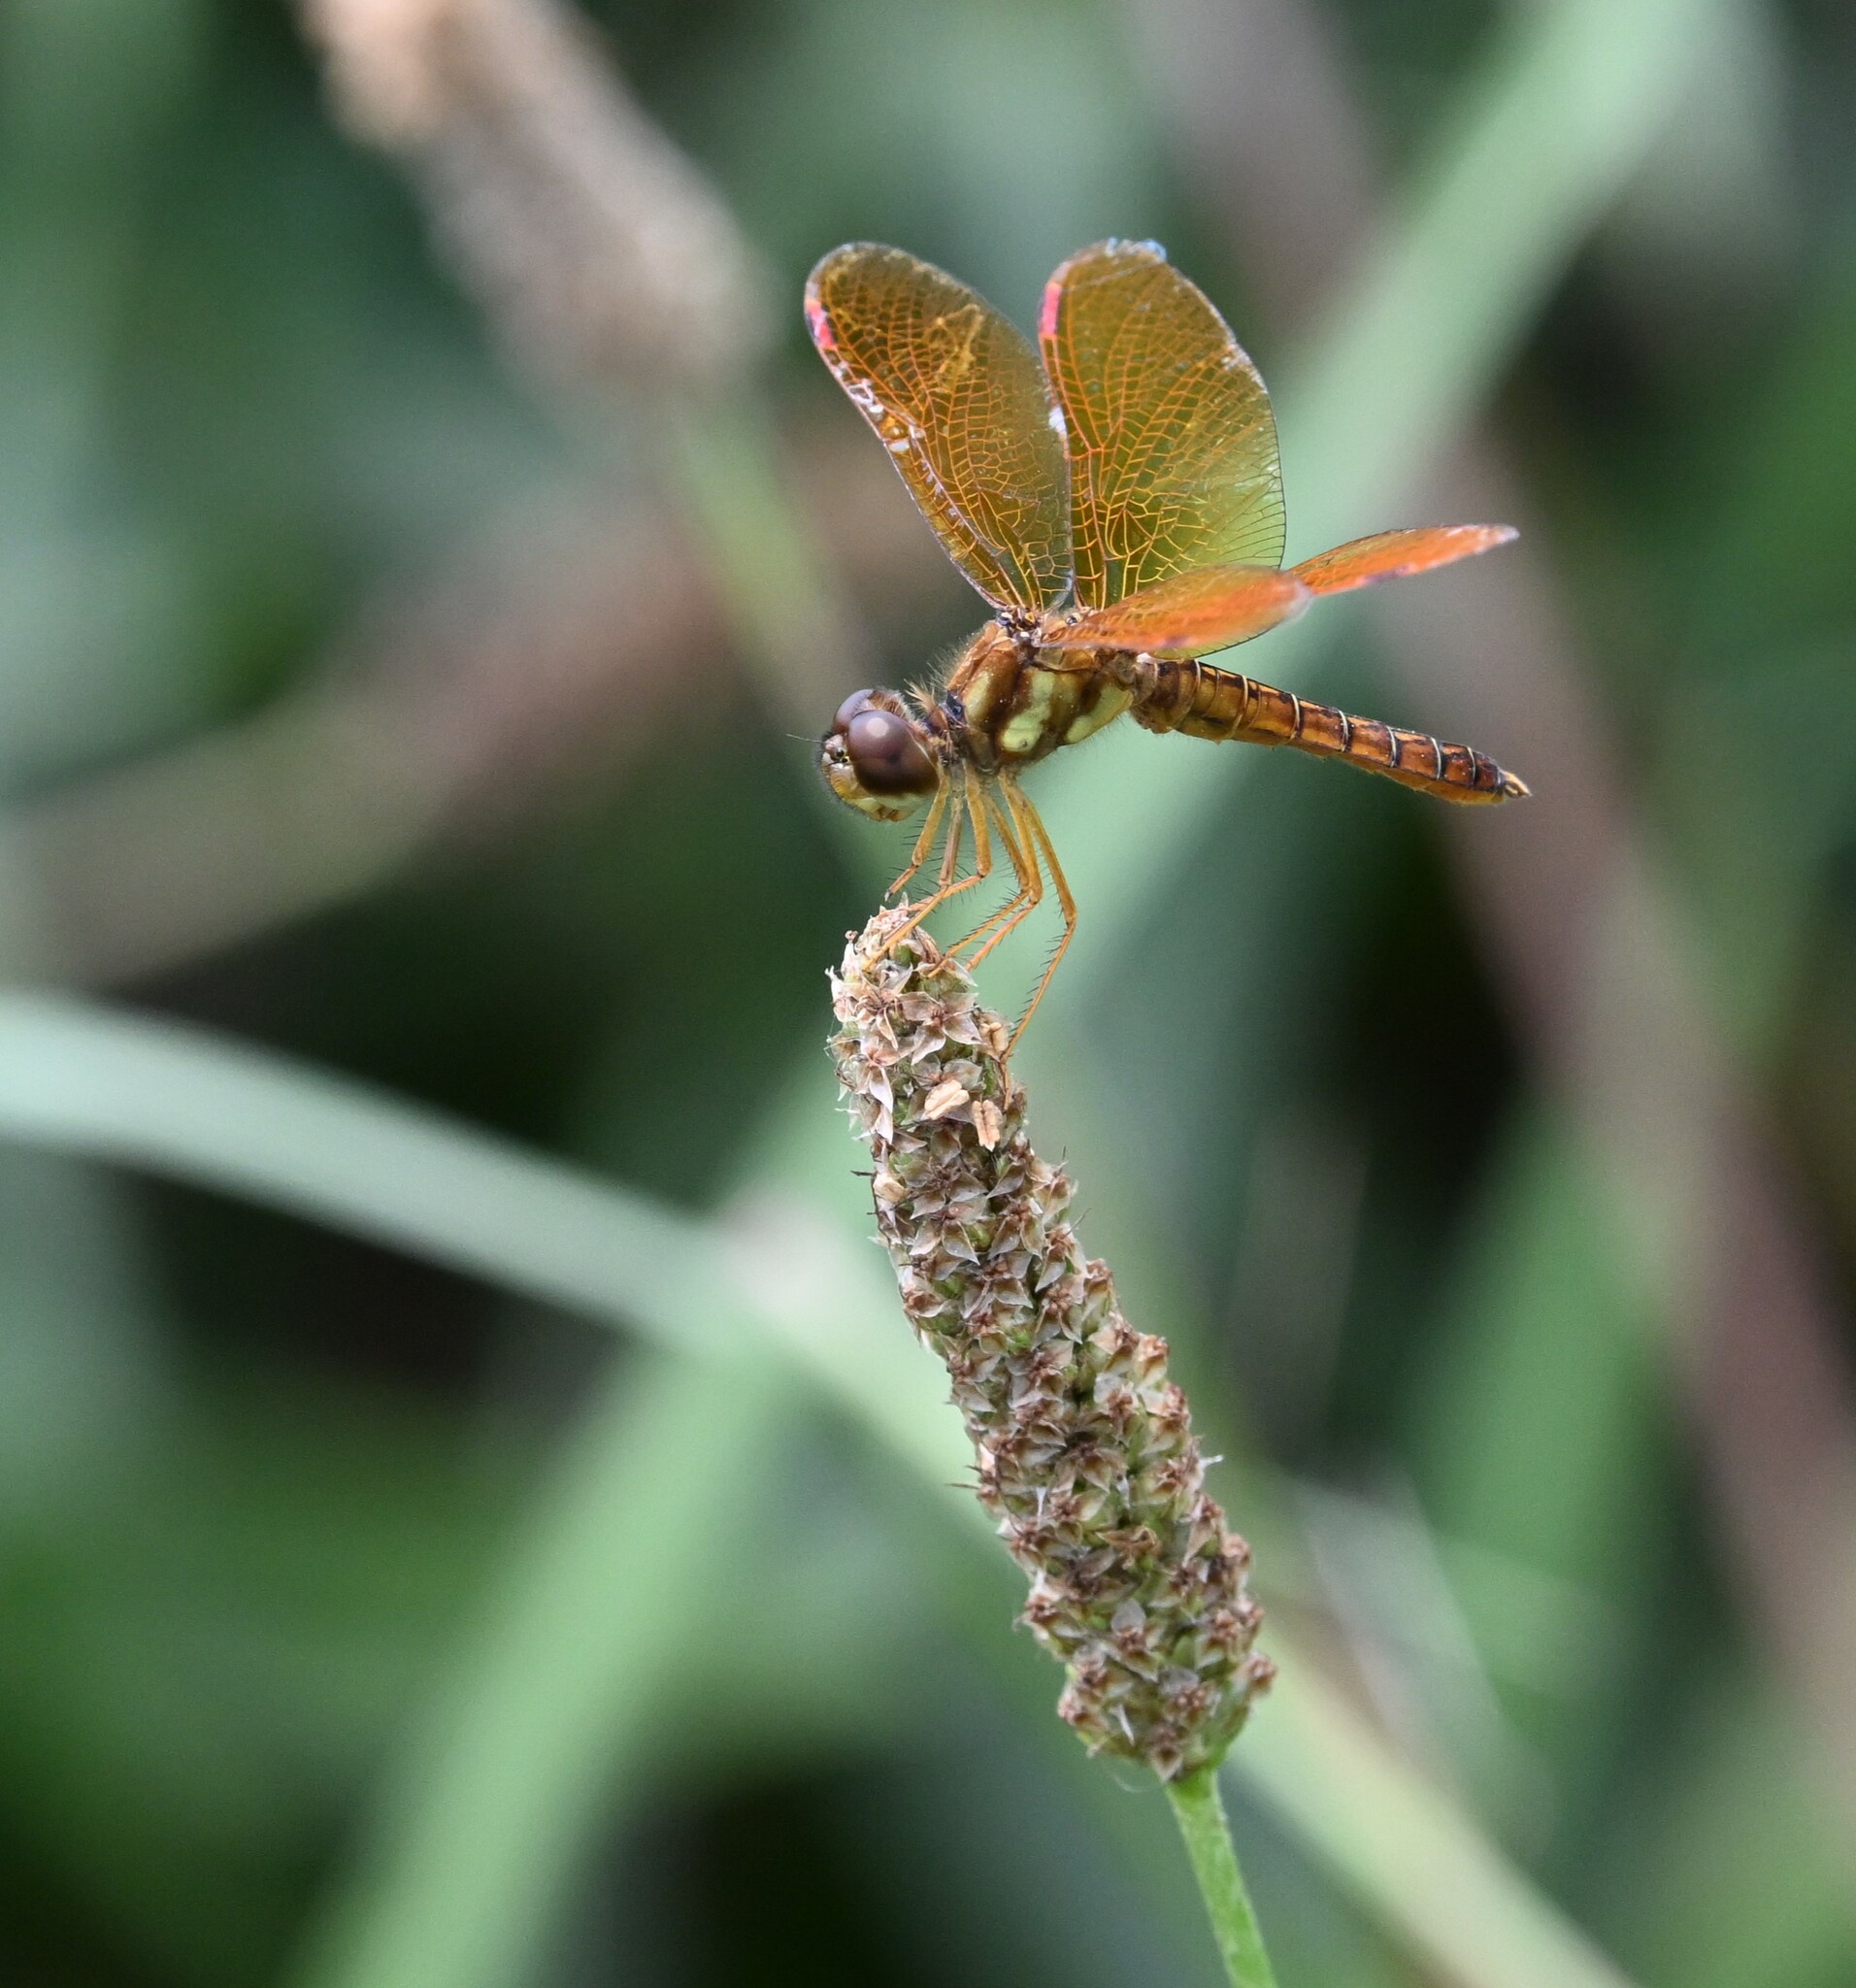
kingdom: Animalia
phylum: Arthropoda
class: Insecta
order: Odonata
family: Libellulidae
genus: Perithemis
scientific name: Perithemis tenera
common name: Eastern amberwing
